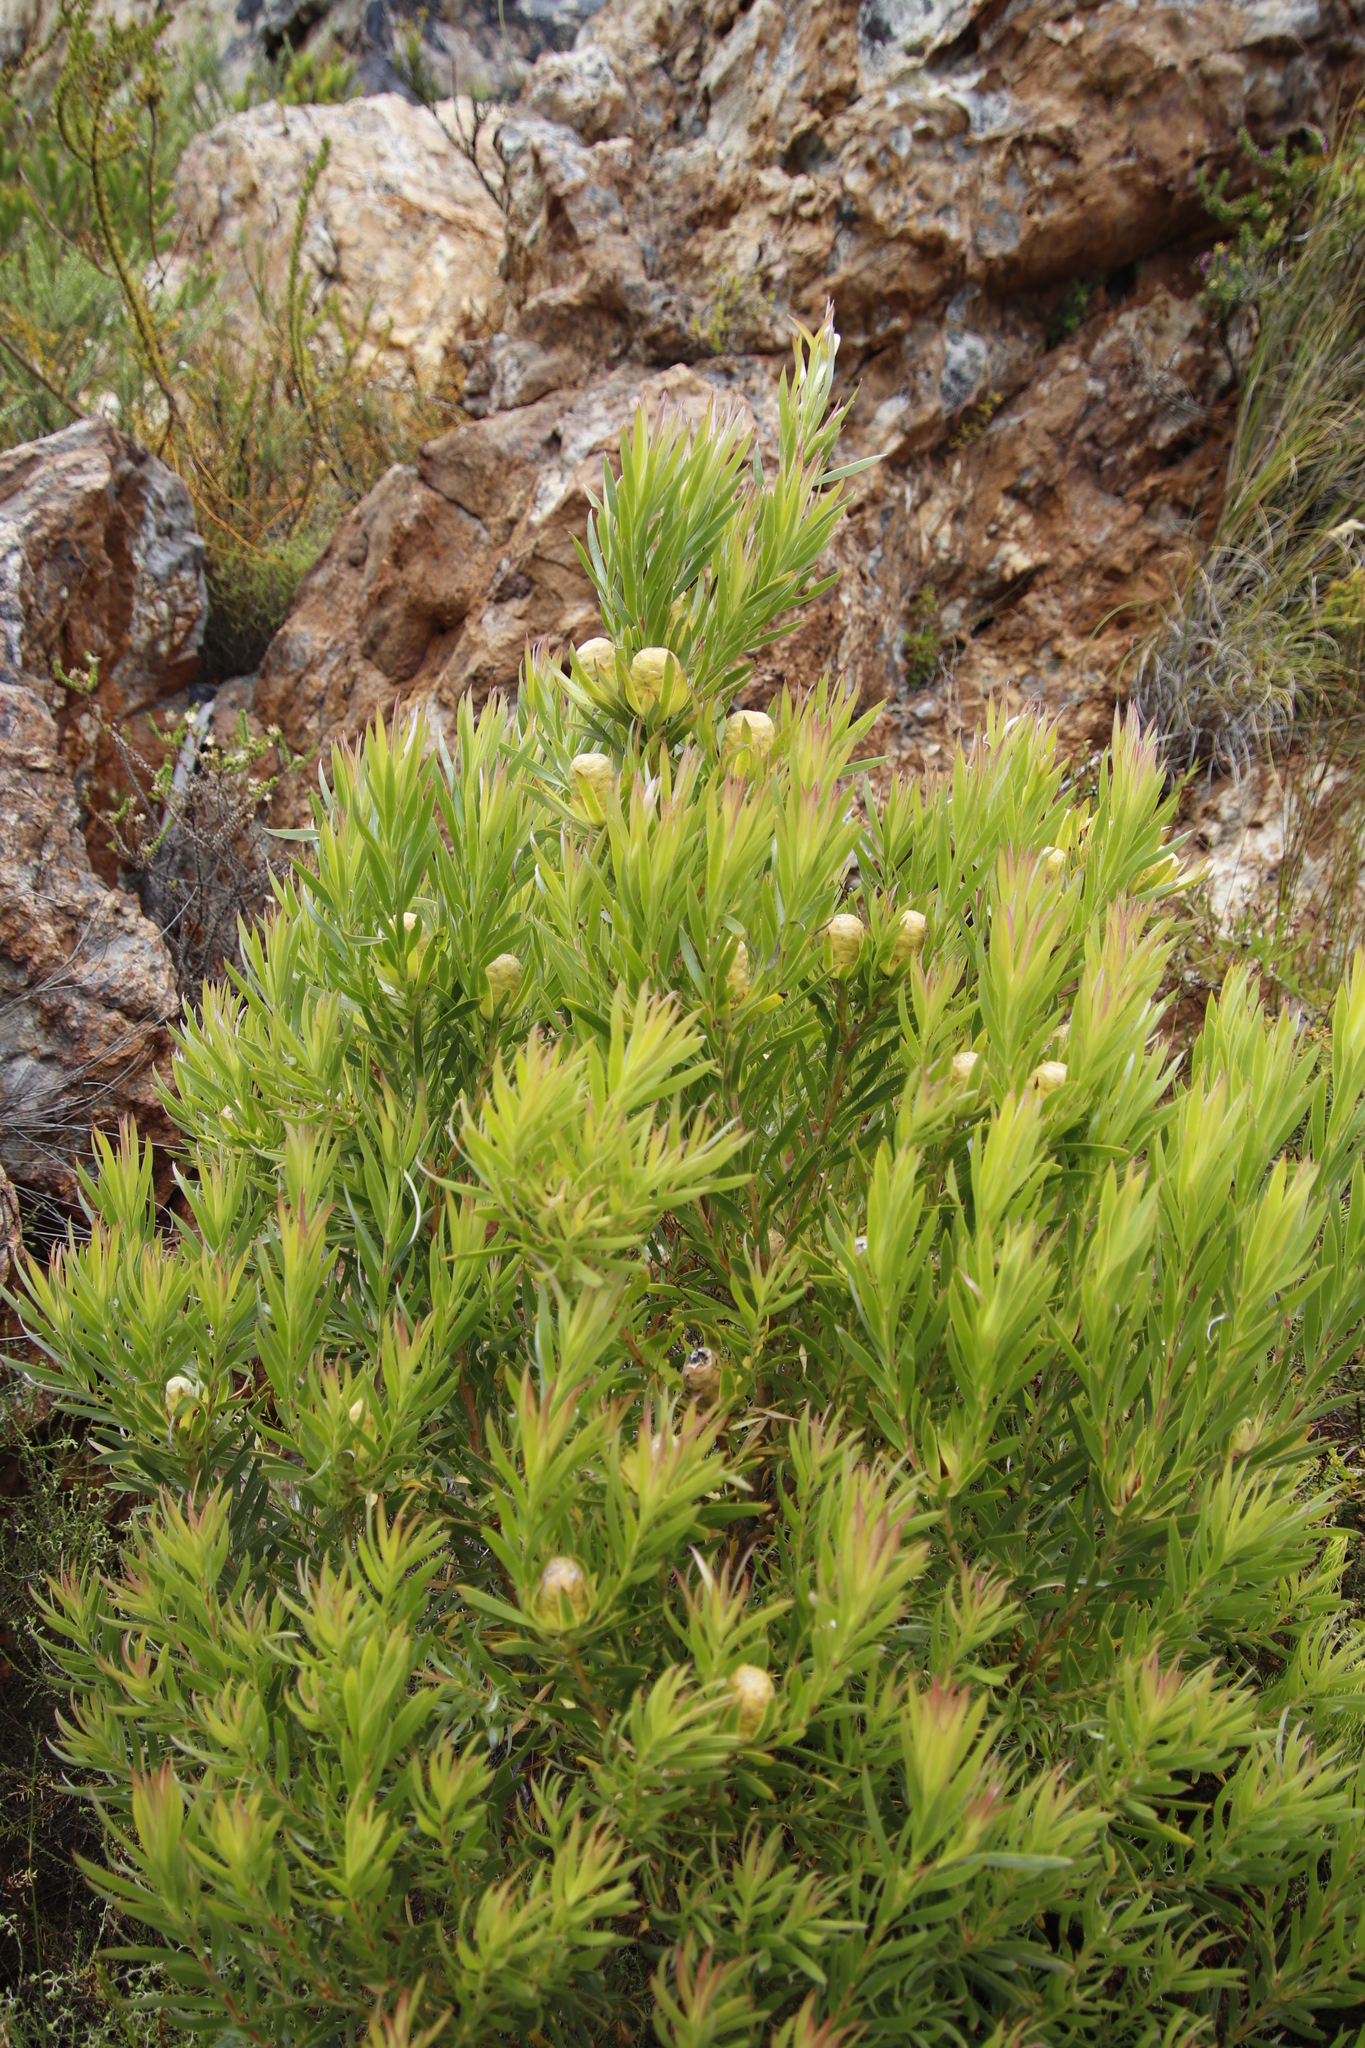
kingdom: Plantae
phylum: Tracheophyta
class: Magnoliopsida
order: Proteales
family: Proteaceae
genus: Leucadendron
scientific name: Leucadendron xanthoconus
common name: Sickle-leaf conebush
